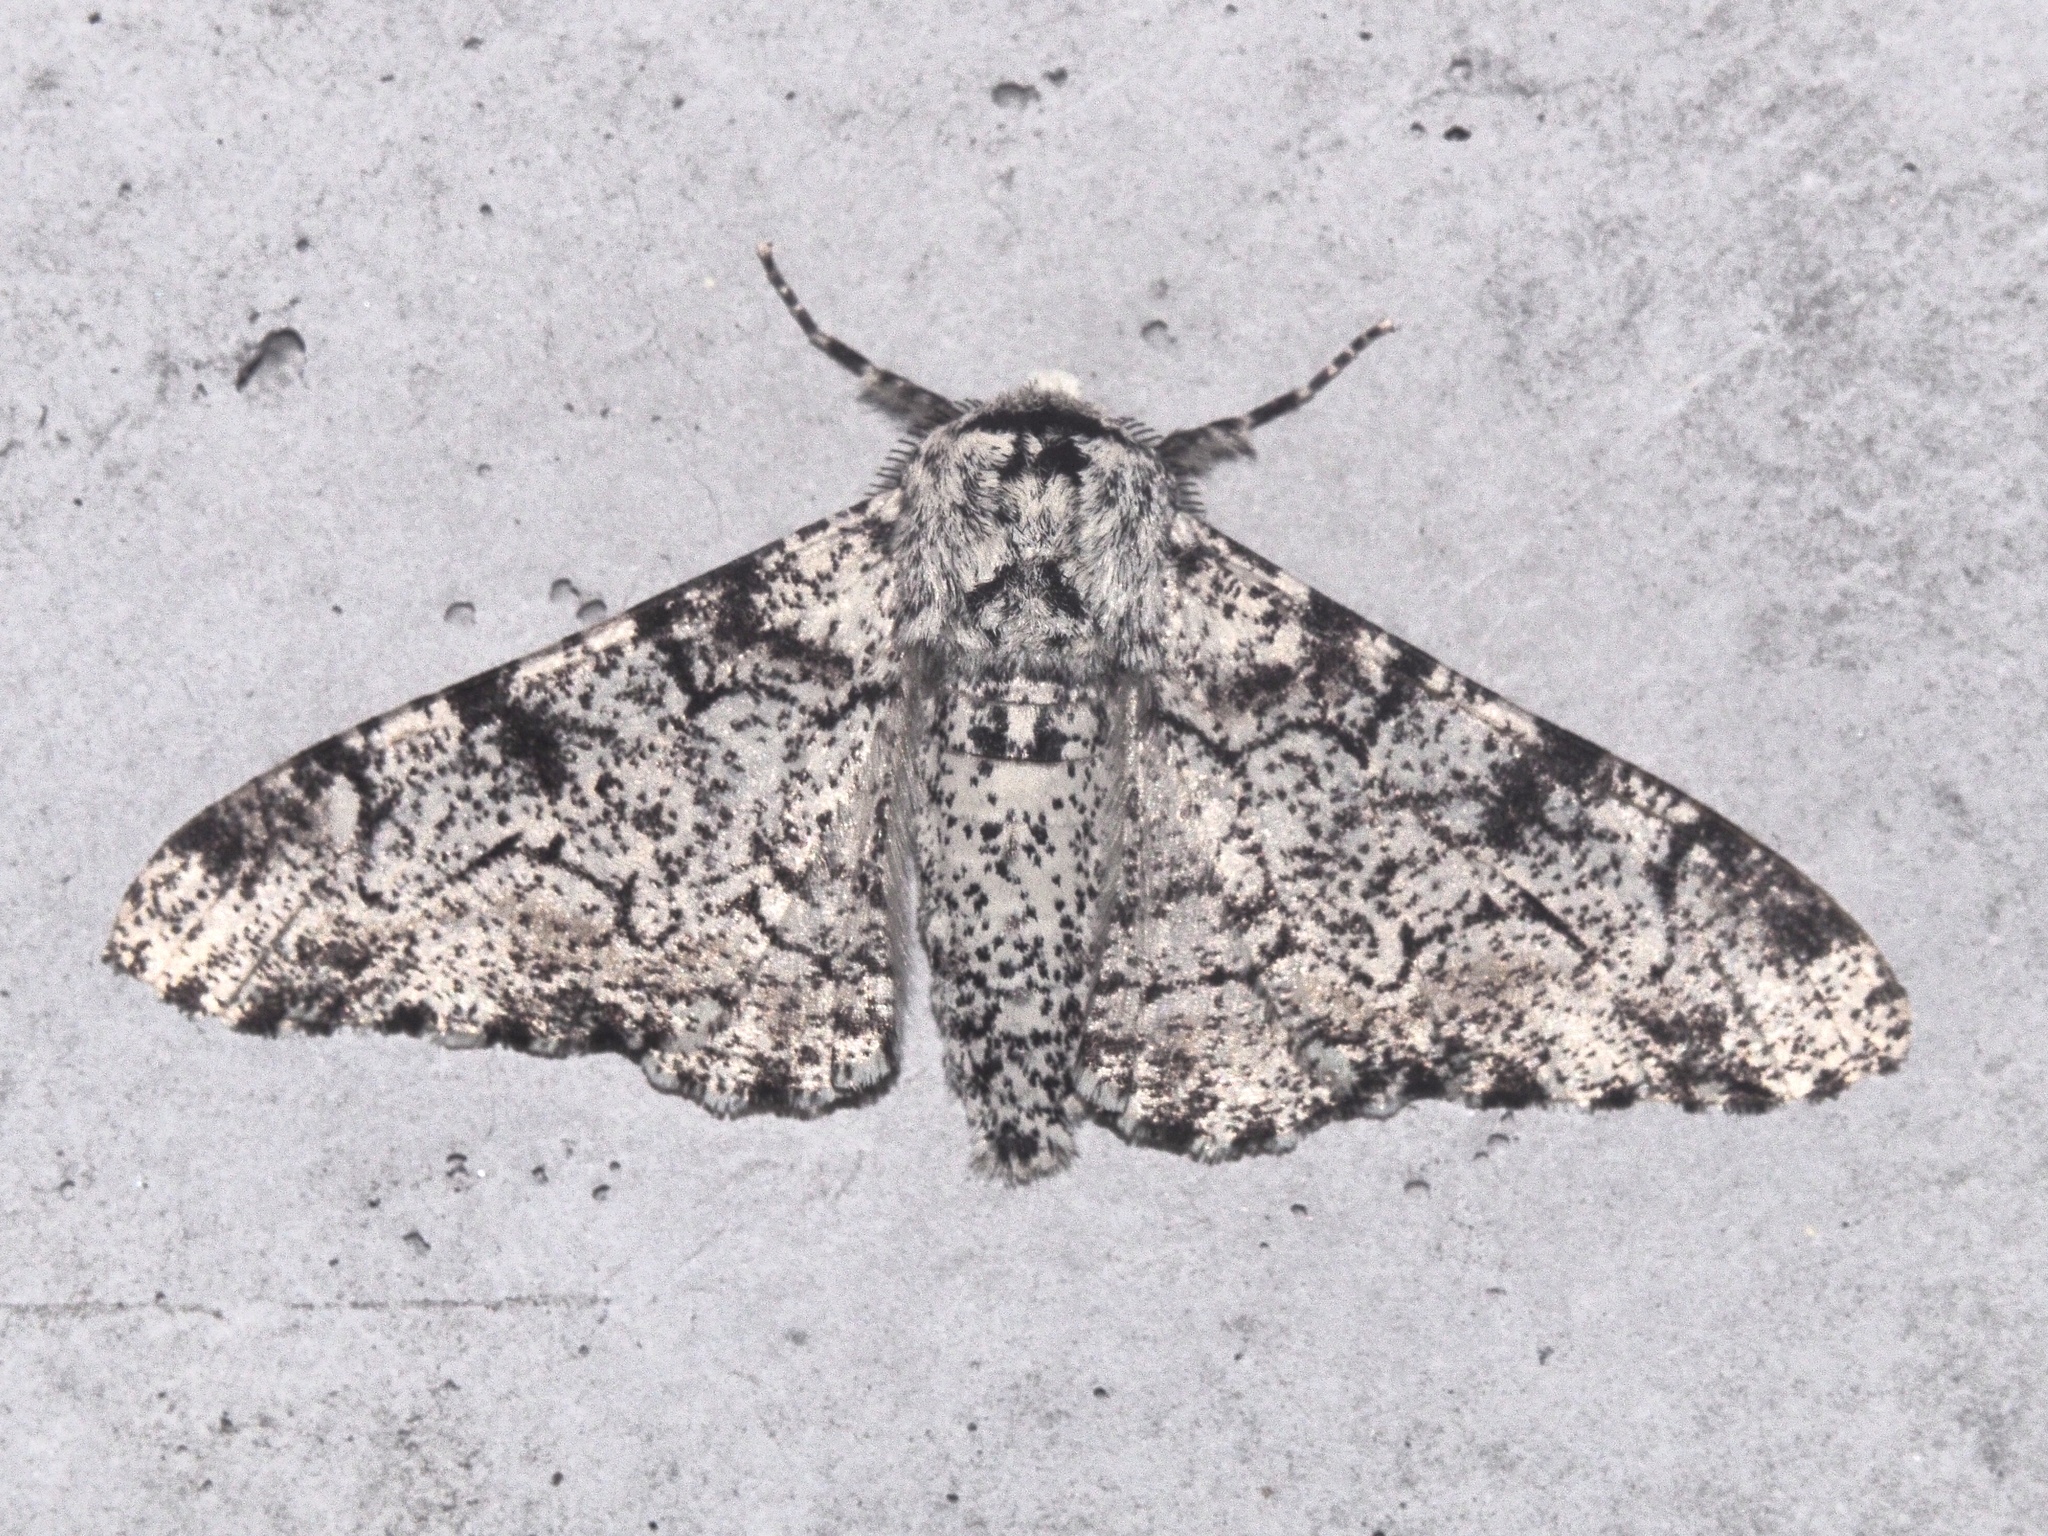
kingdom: Animalia
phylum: Arthropoda
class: Insecta
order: Lepidoptera
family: Geometridae
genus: Biston
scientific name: Biston betularia
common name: Peppered moth
